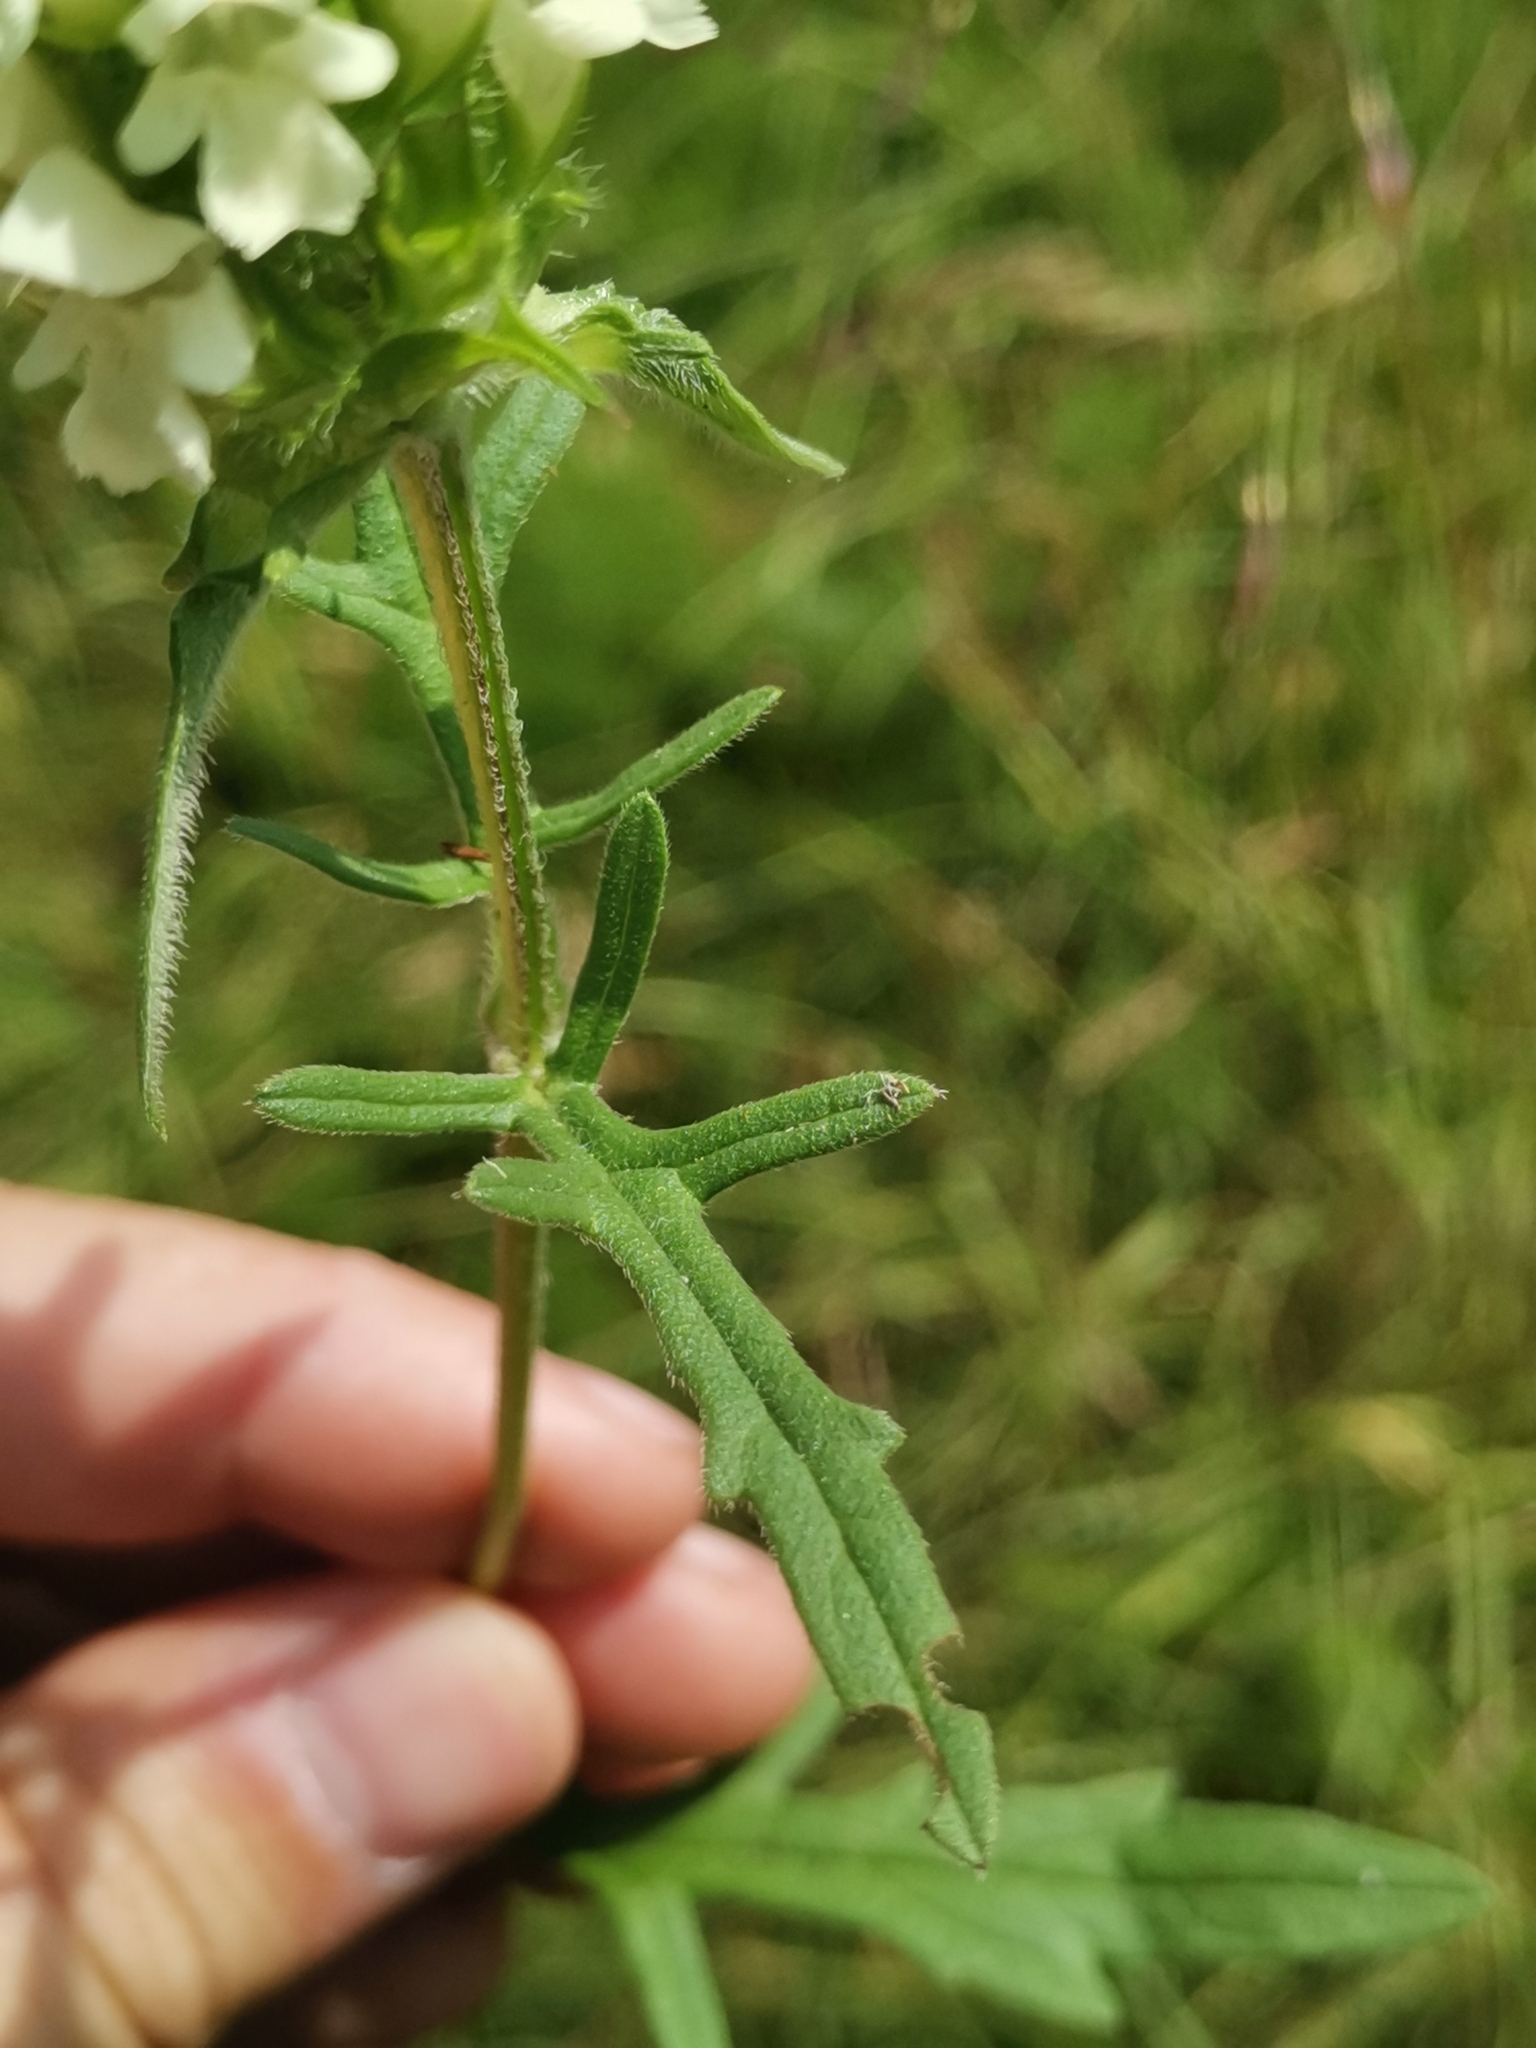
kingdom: Plantae
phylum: Tracheophyta
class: Magnoliopsida
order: Lamiales
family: Lamiaceae
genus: Prunella
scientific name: Prunella laciniata
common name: Cut-leaved selfheal
